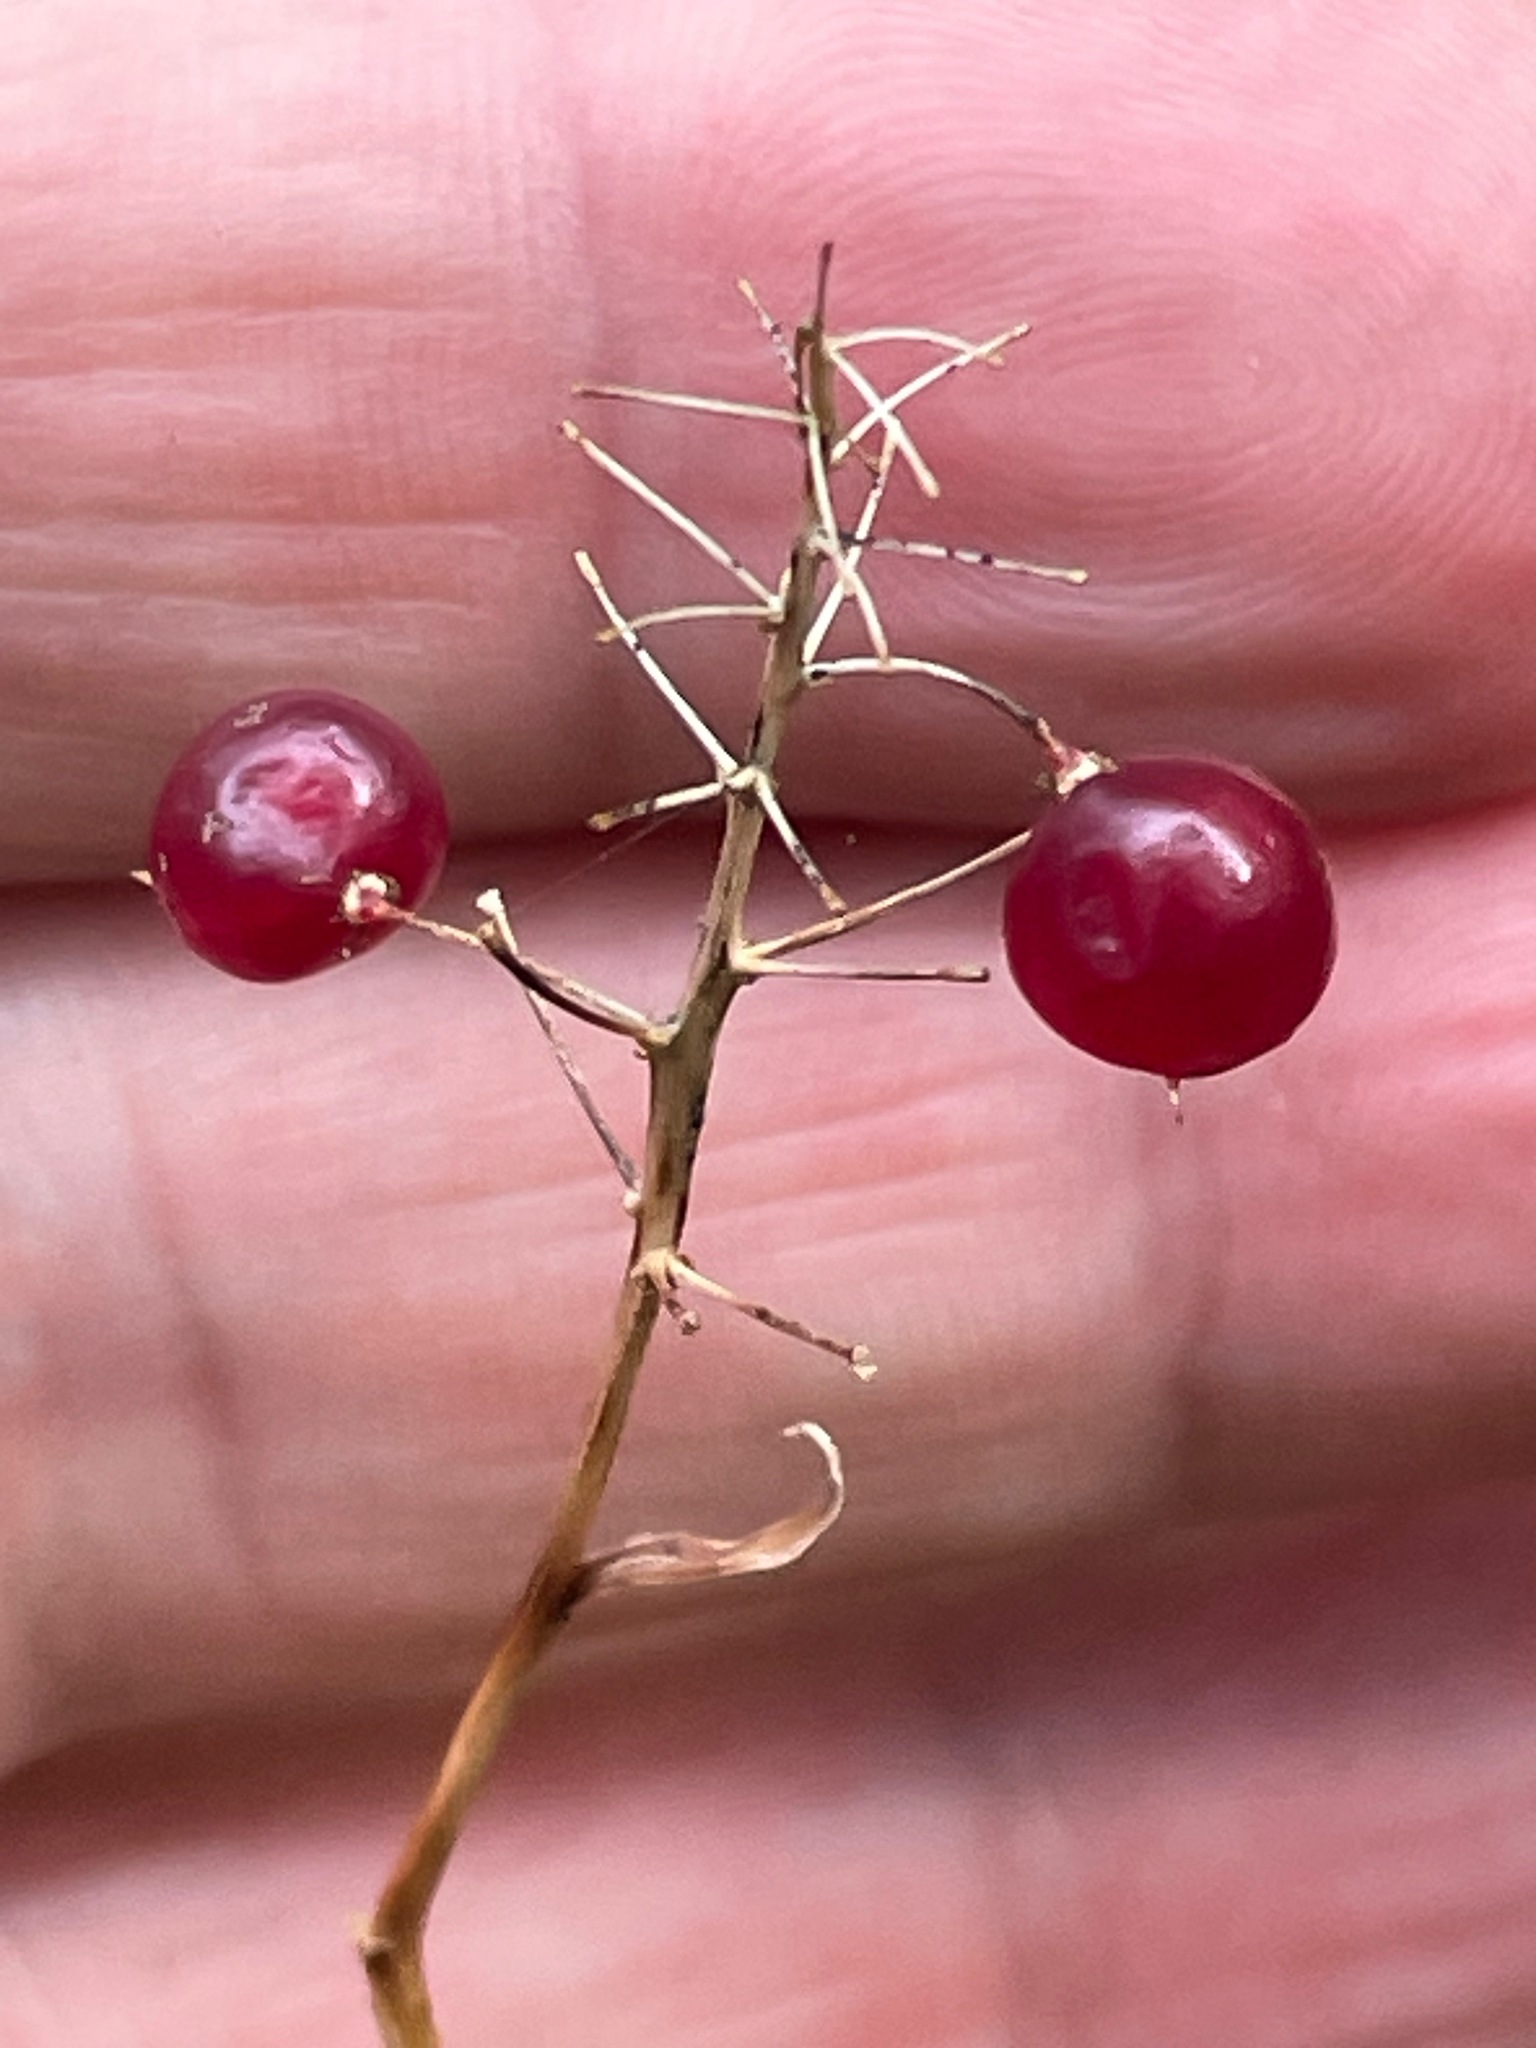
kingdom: Plantae
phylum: Tracheophyta
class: Liliopsida
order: Asparagales
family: Asparagaceae
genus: Maianthemum
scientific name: Maianthemum canadense
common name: False lily-of-the-valley
